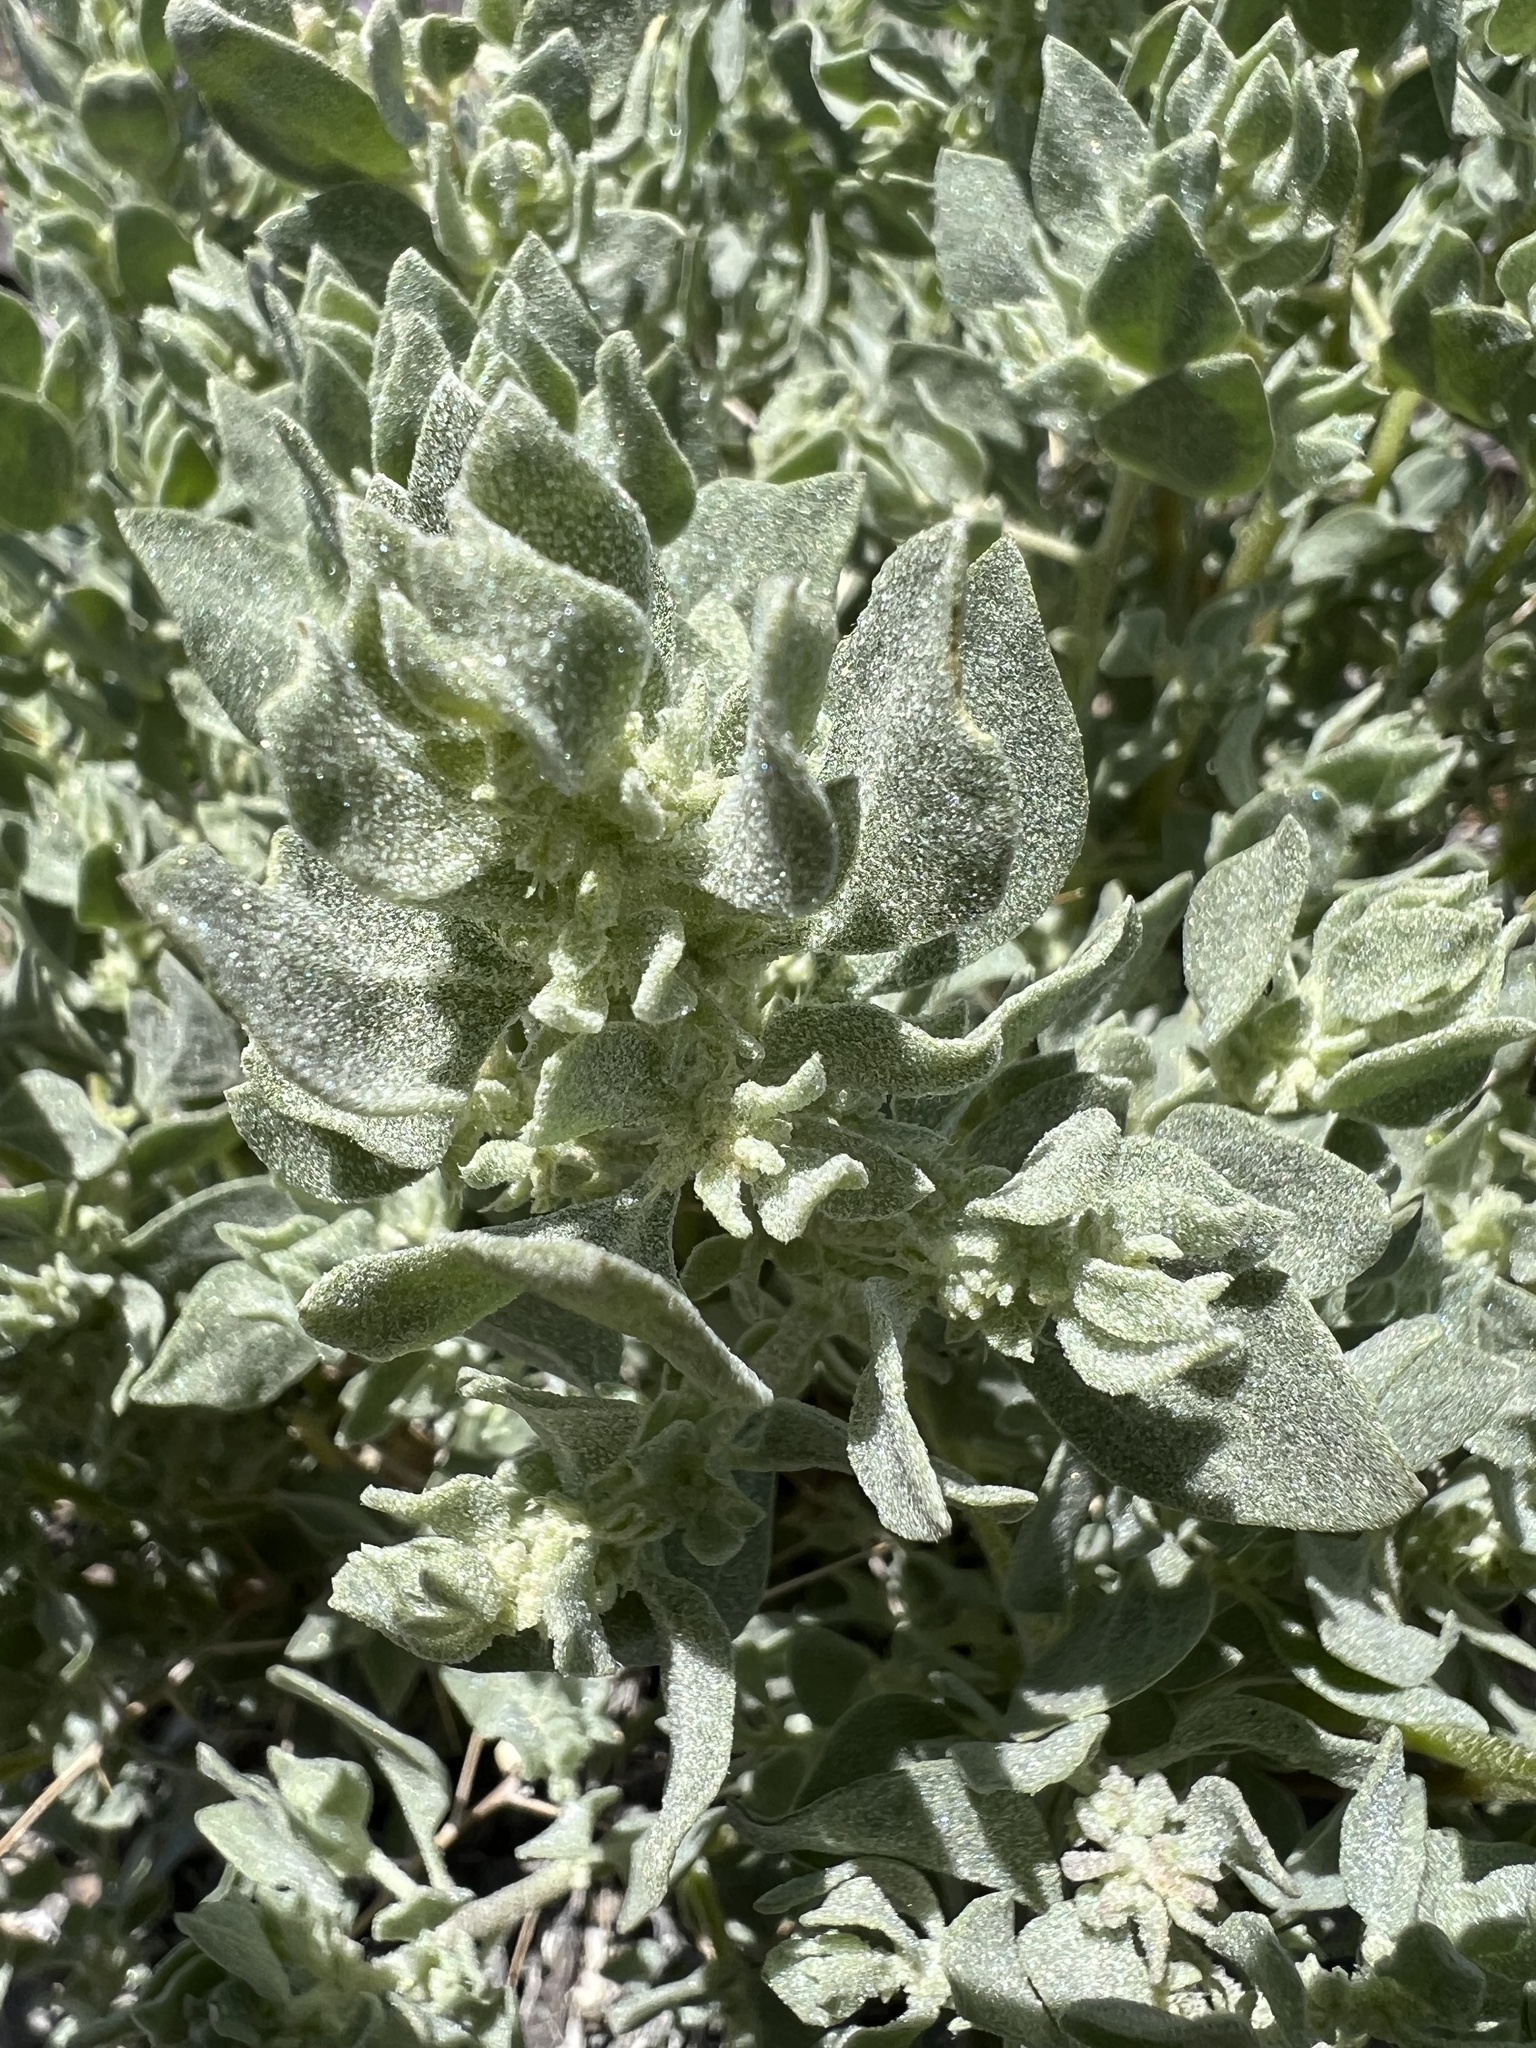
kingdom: Plantae
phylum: Tracheophyta
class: Magnoliopsida
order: Caryophyllales
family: Amaranthaceae
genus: Atriplex
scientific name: Atriplex confertifolia
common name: Shadscale
